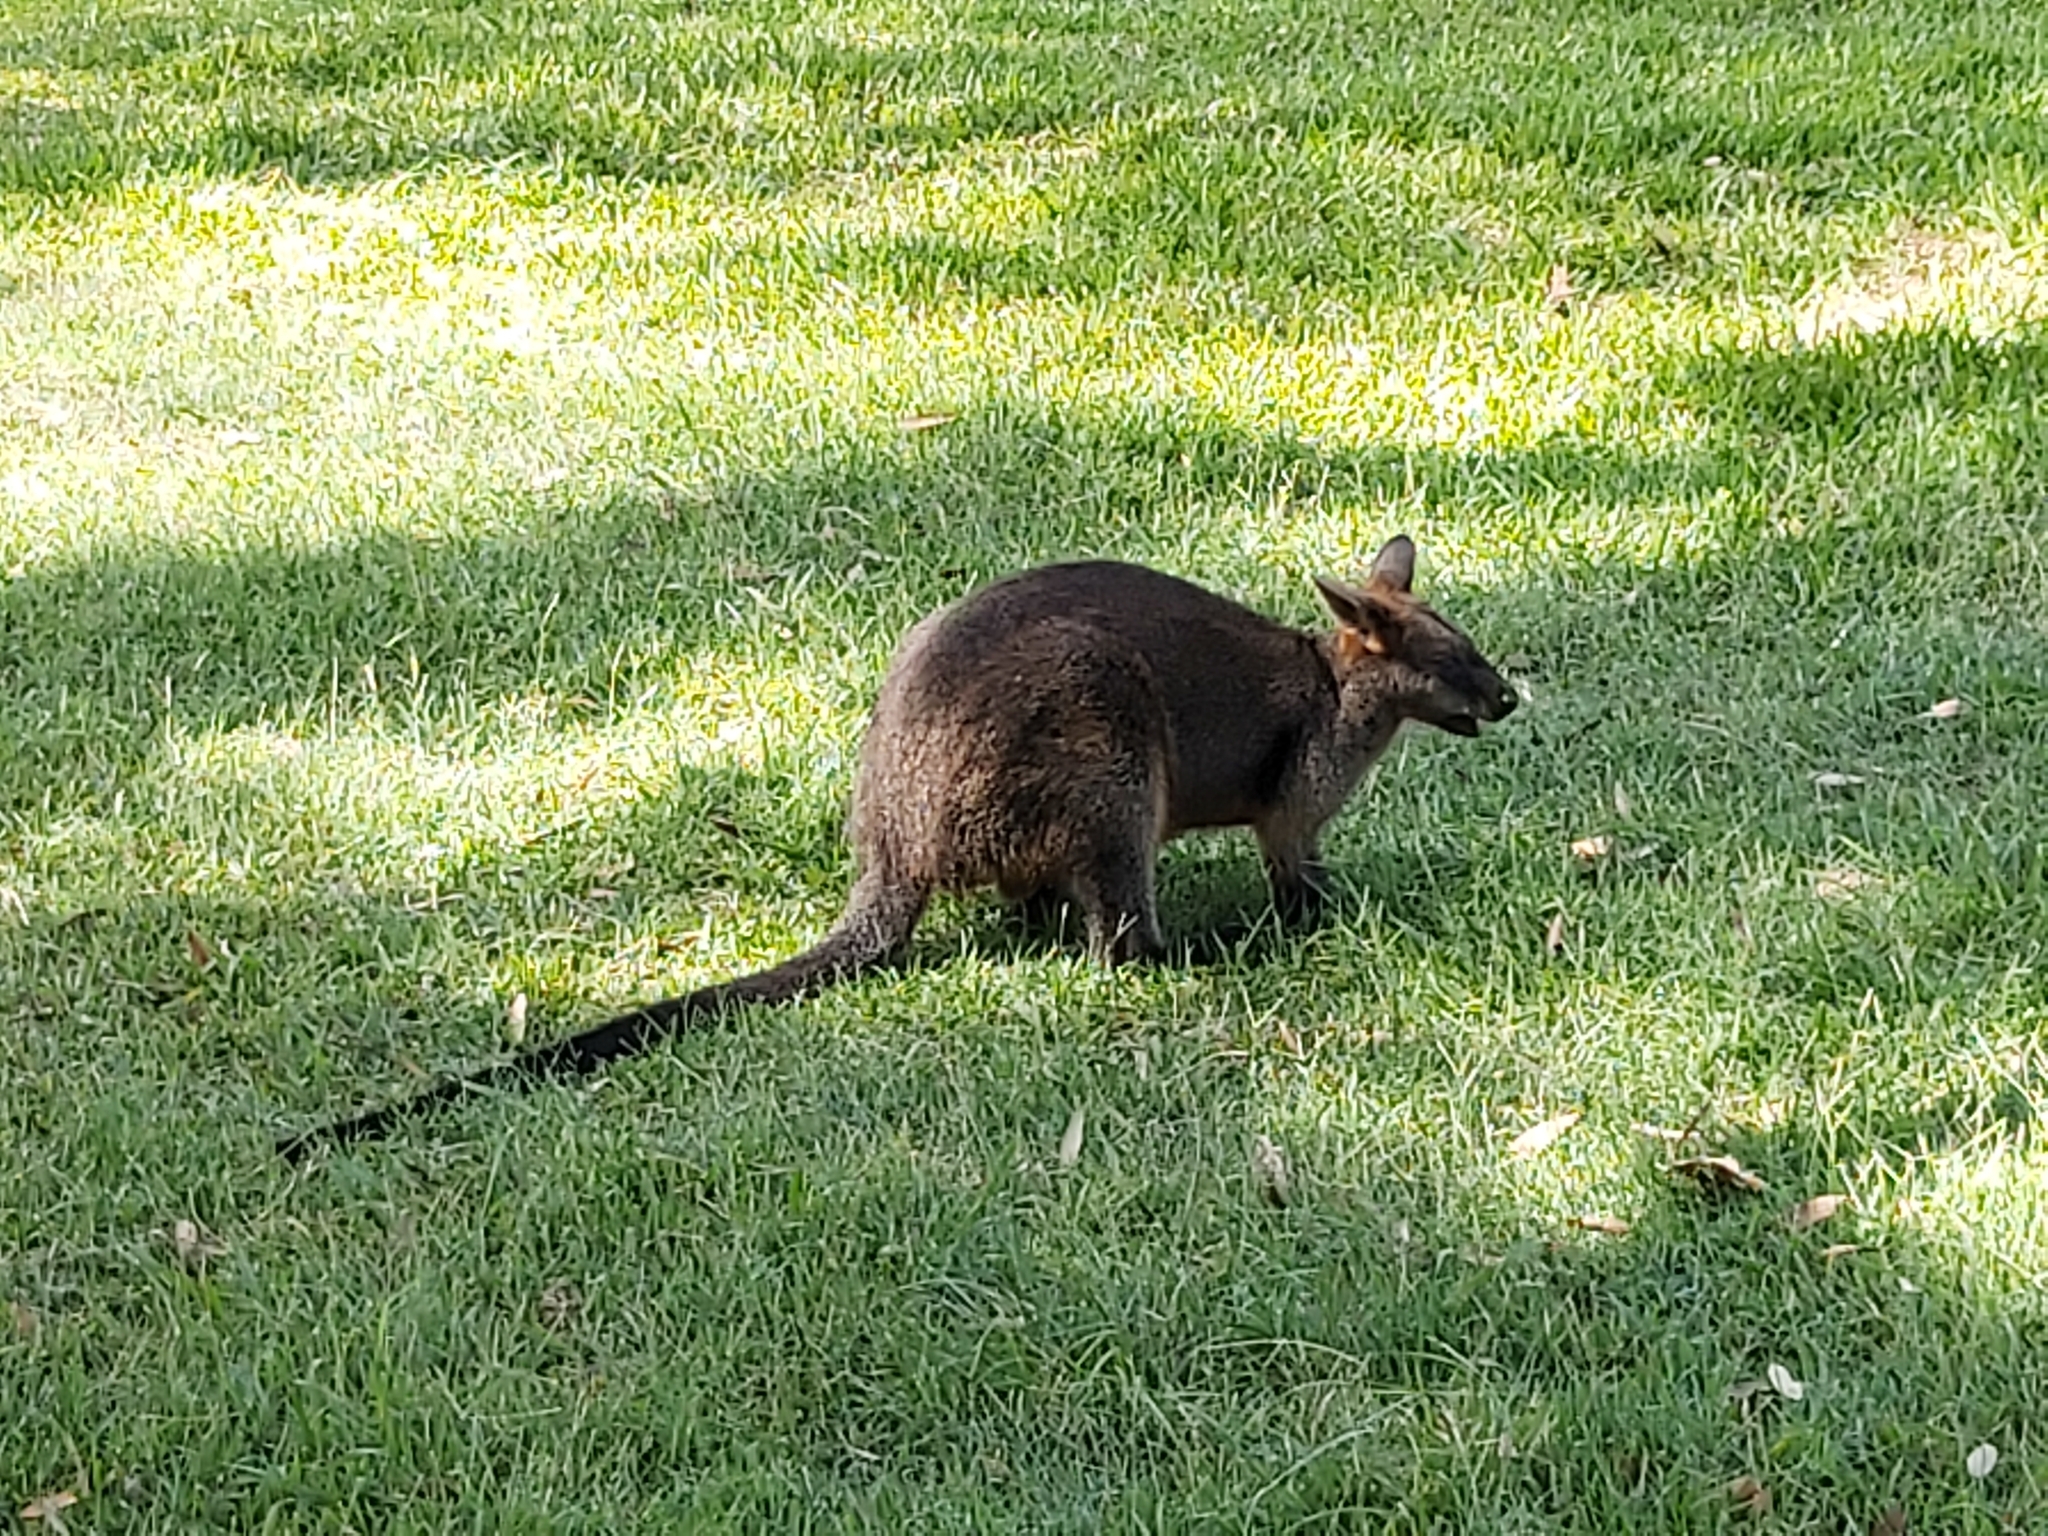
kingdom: Animalia
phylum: Chordata
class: Mammalia
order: Diprotodontia
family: Macropodidae
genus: Wallabia
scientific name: Wallabia bicolor
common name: Swamp wallaby
